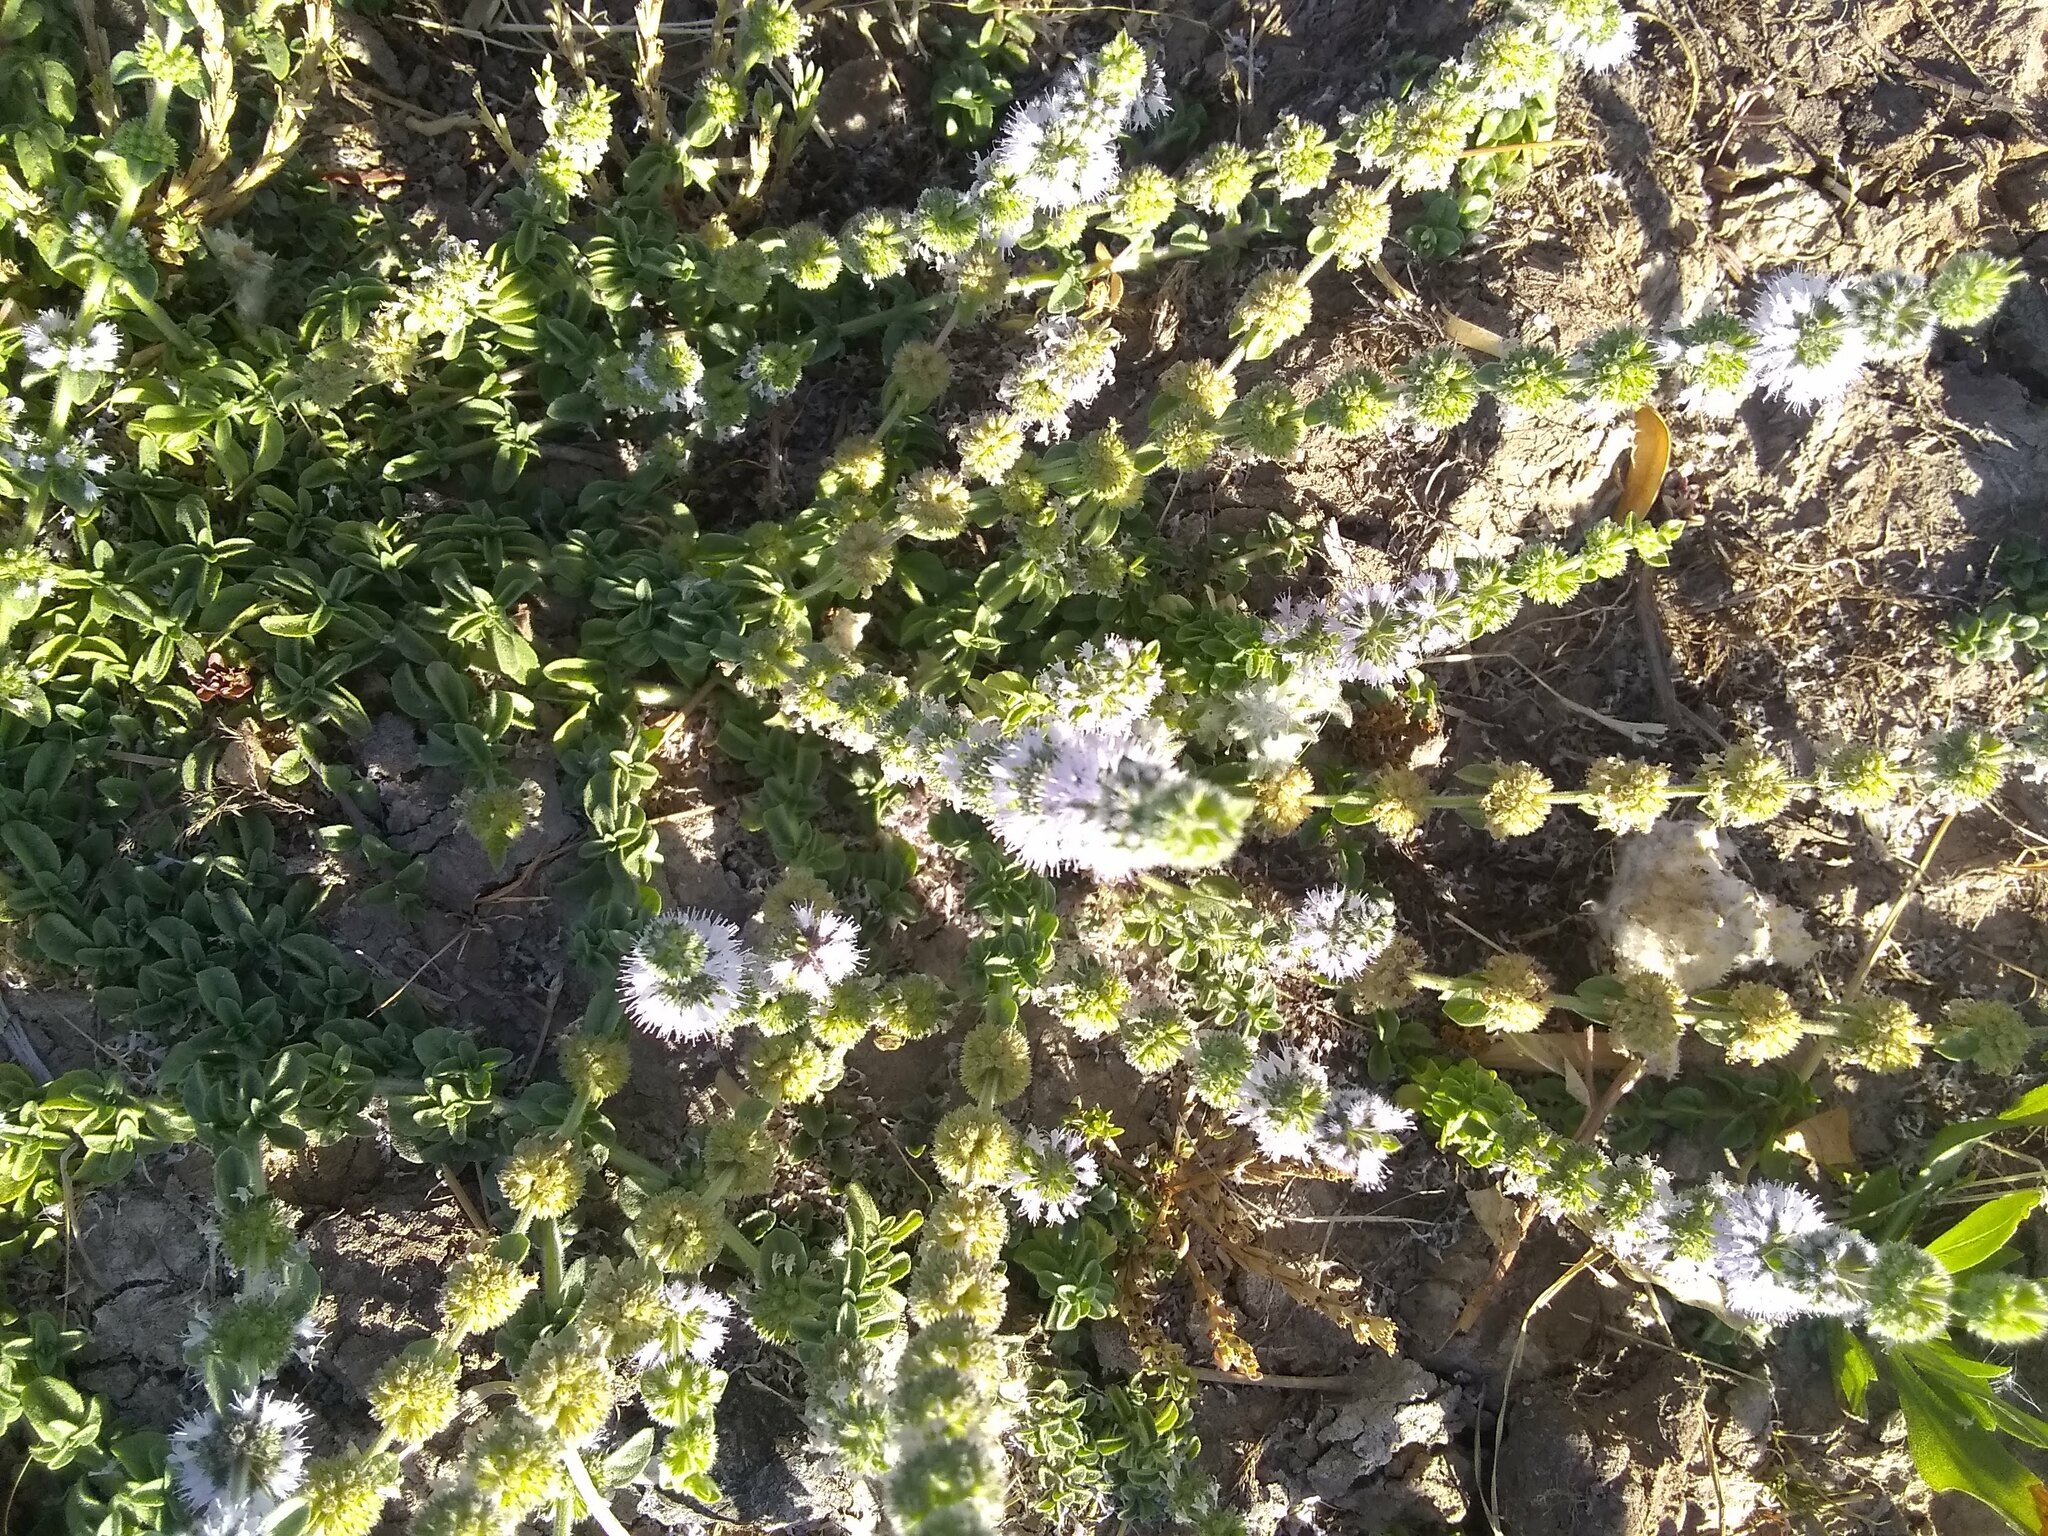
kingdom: Plantae
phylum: Tracheophyta
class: Magnoliopsida
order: Lamiales
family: Lamiaceae
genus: Mentha
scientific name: Mentha pulegium
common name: Pennyroyal
